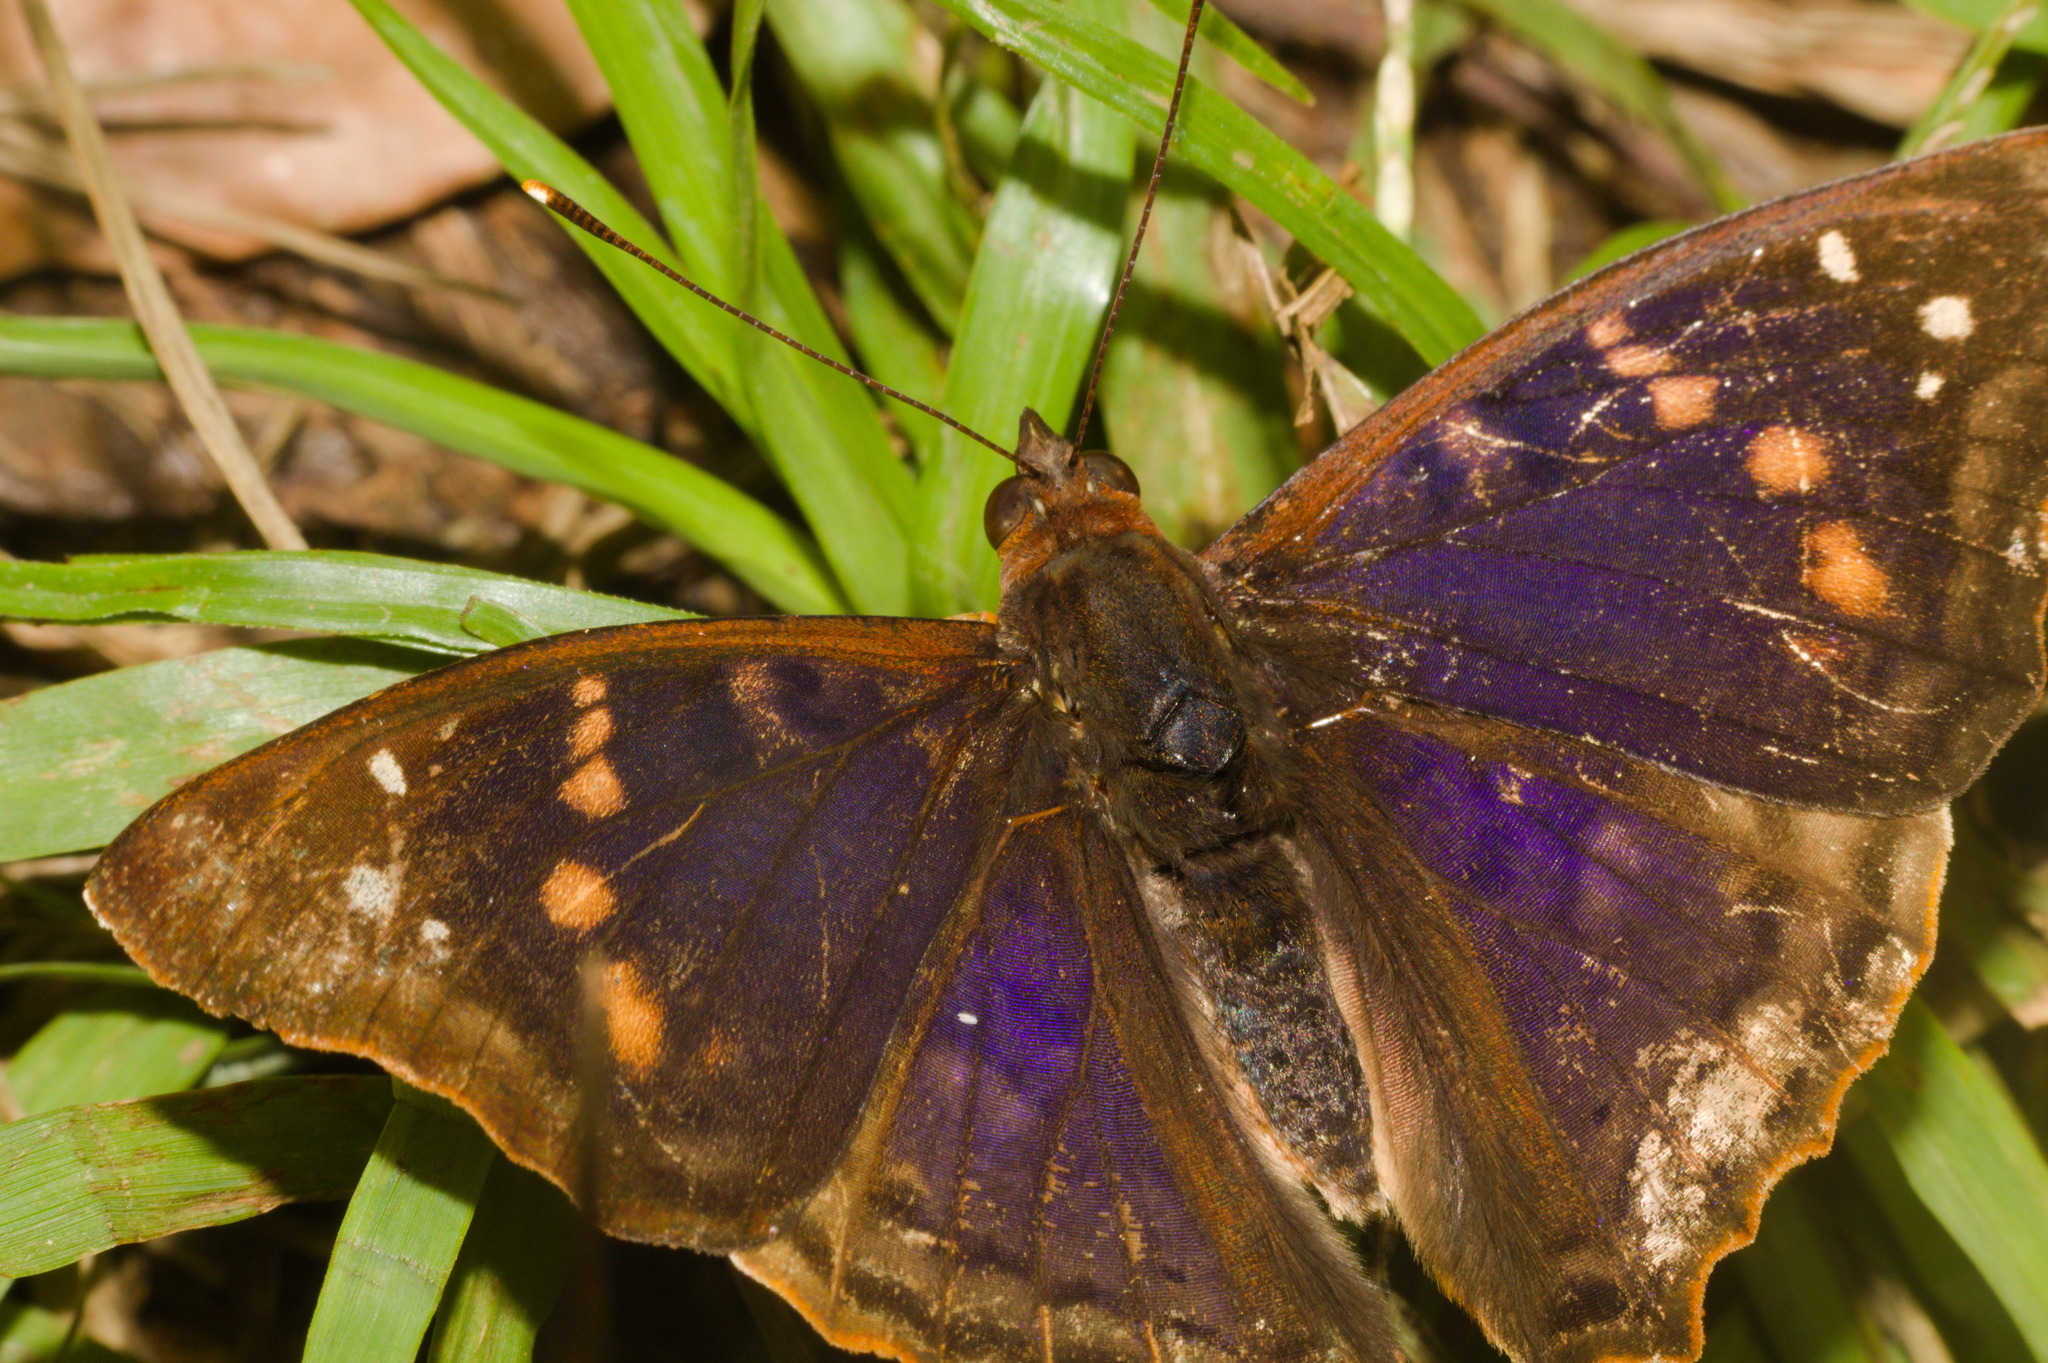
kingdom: Animalia
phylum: Arthropoda
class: Insecta
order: Lepidoptera
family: Nymphalidae
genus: Doxocopa
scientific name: Doxocopa kallina
